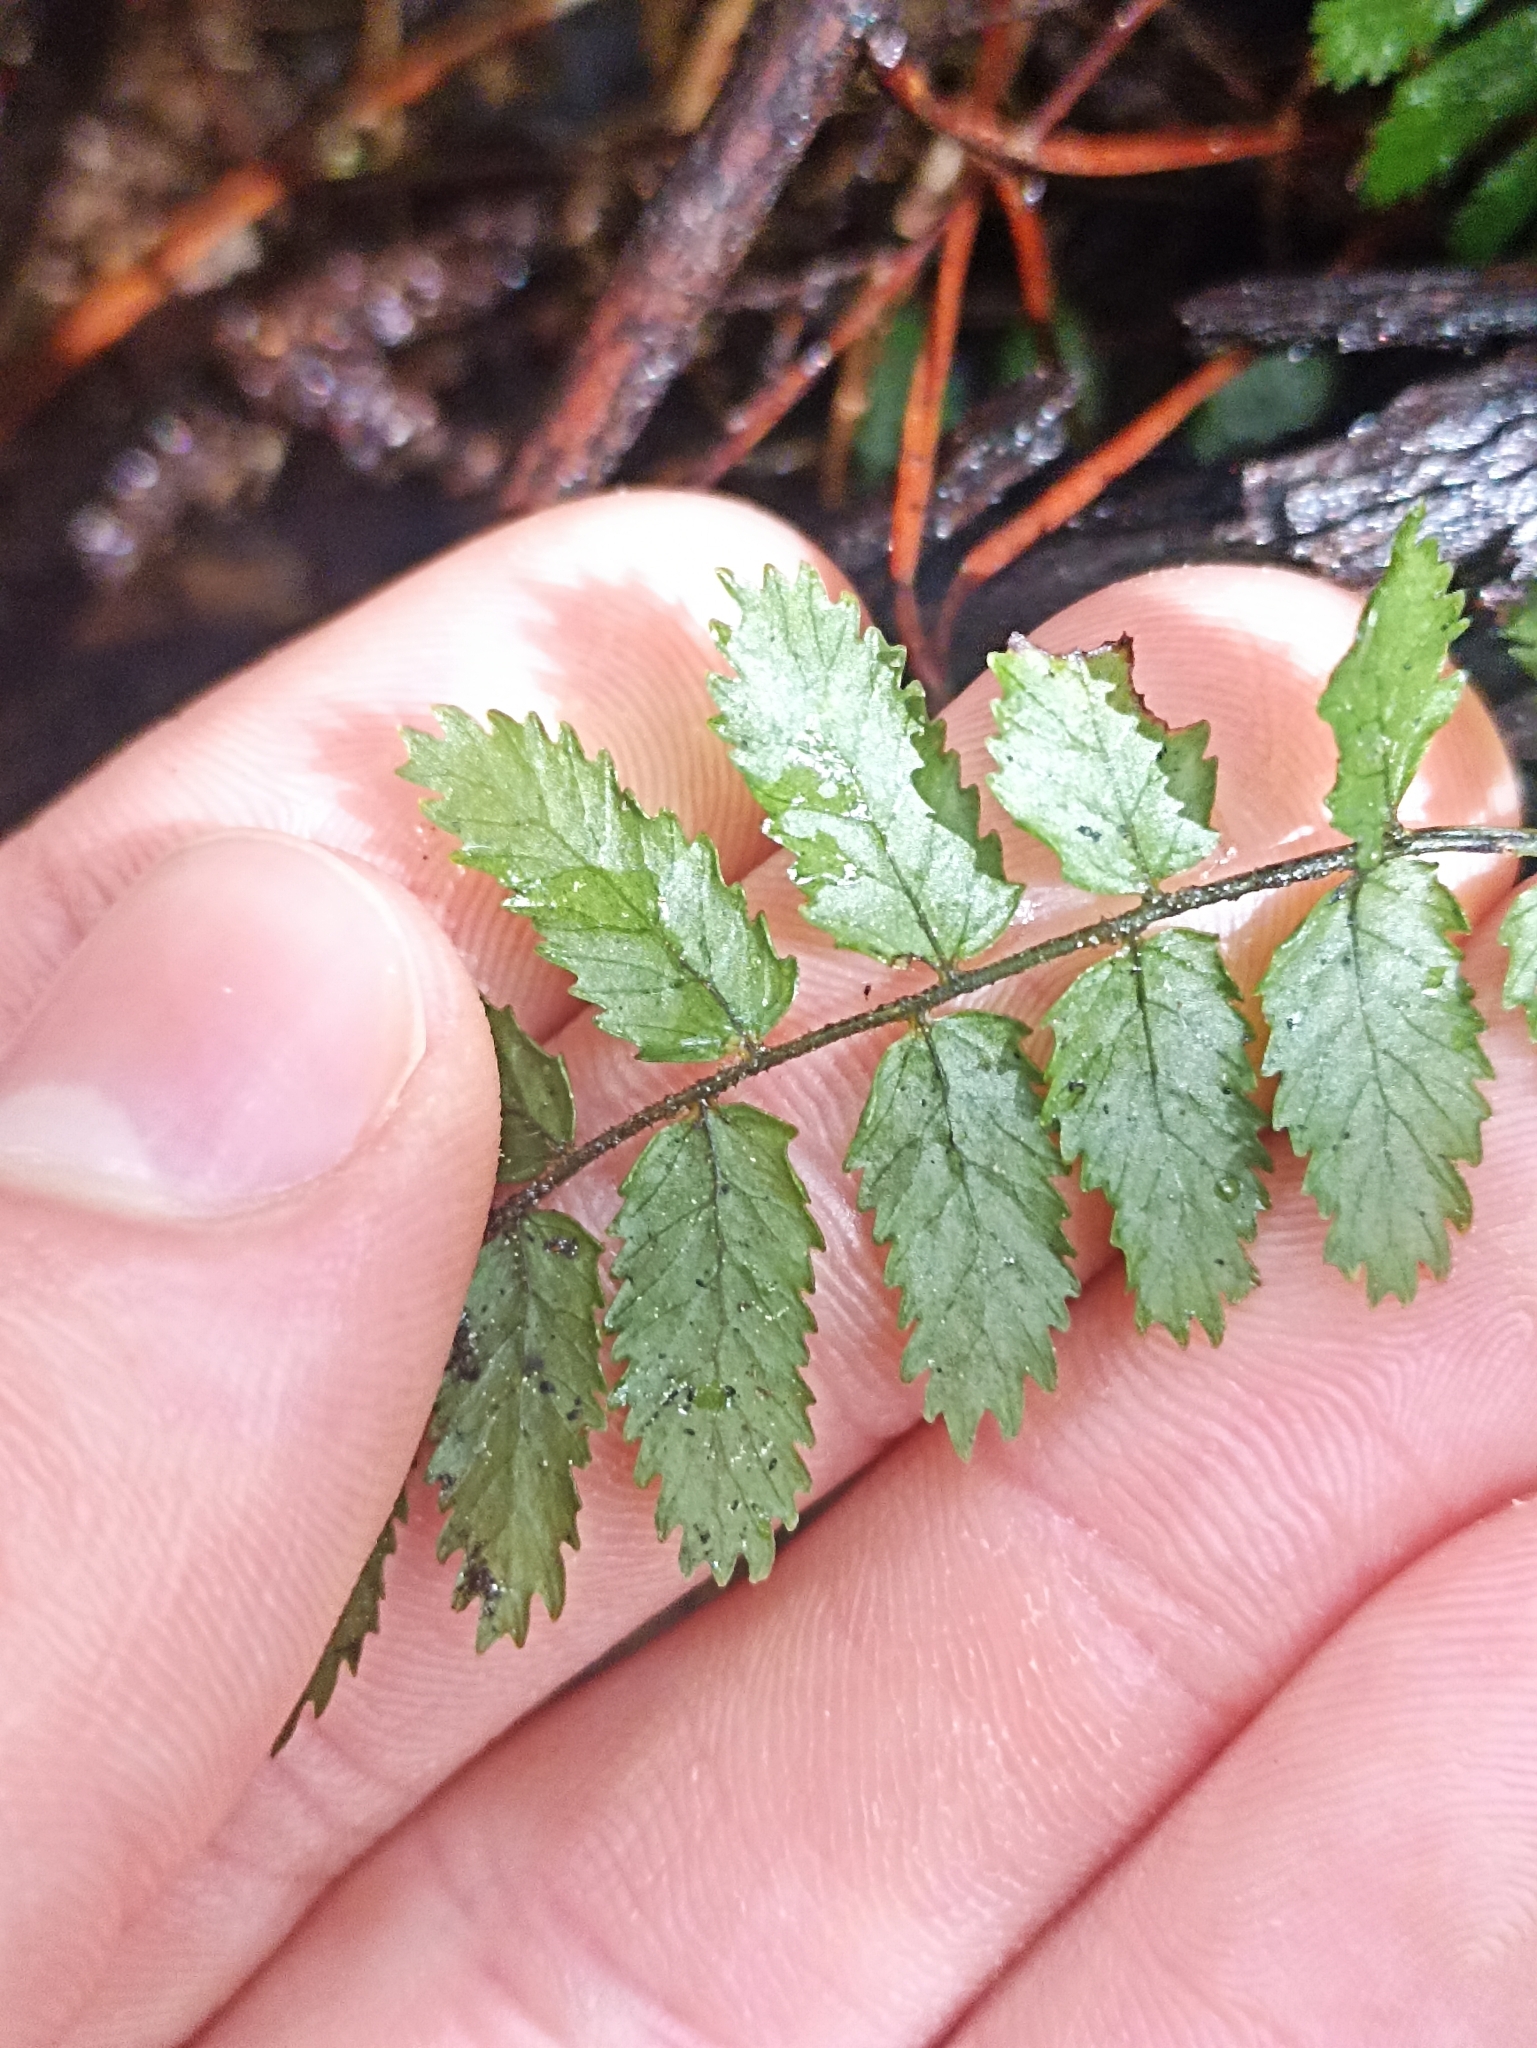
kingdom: Plantae
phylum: Tracheophyta
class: Polypodiopsida
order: Polypodiales
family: Blechnaceae
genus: Icarus
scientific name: Icarus filiformis
